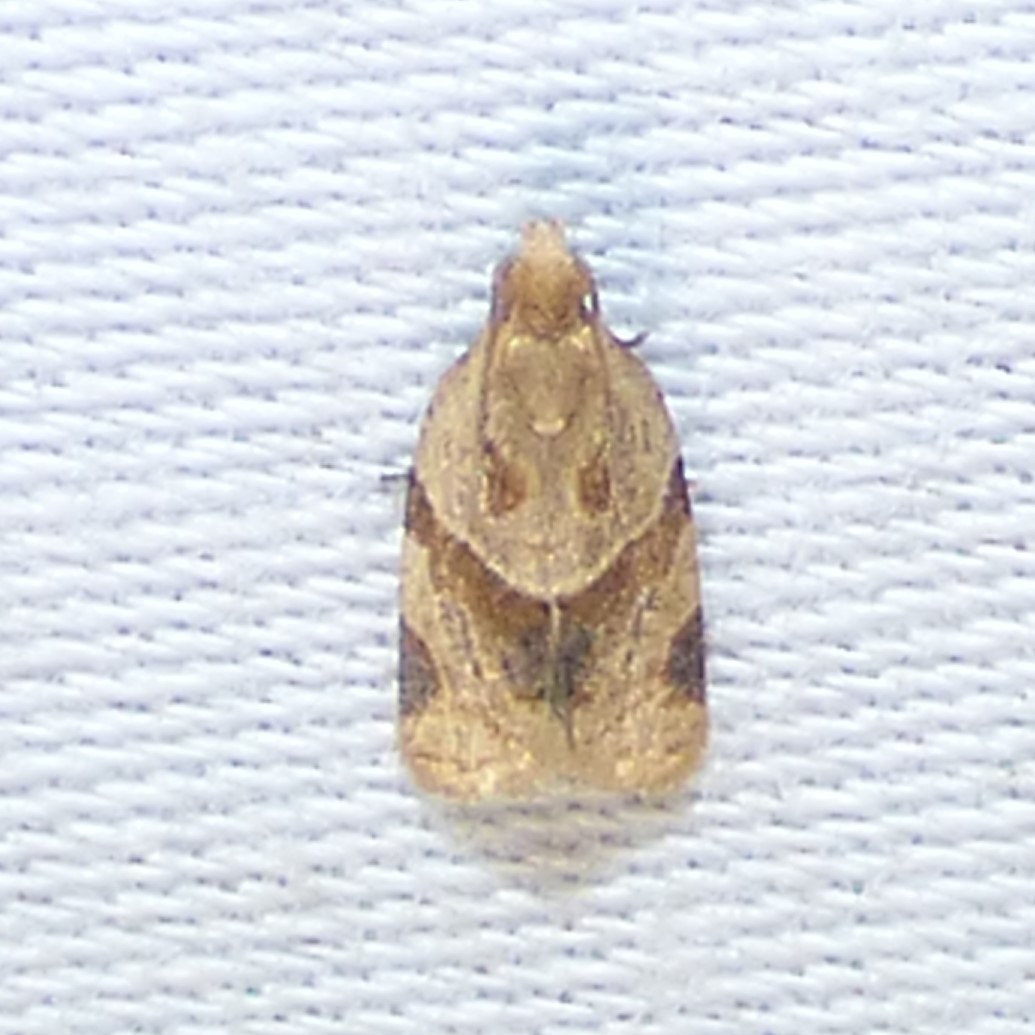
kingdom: Animalia
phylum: Arthropoda
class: Insecta
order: Lepidoptera
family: Tortricidae
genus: Clepsis
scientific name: Clepsis peritana
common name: Garden tortrix
